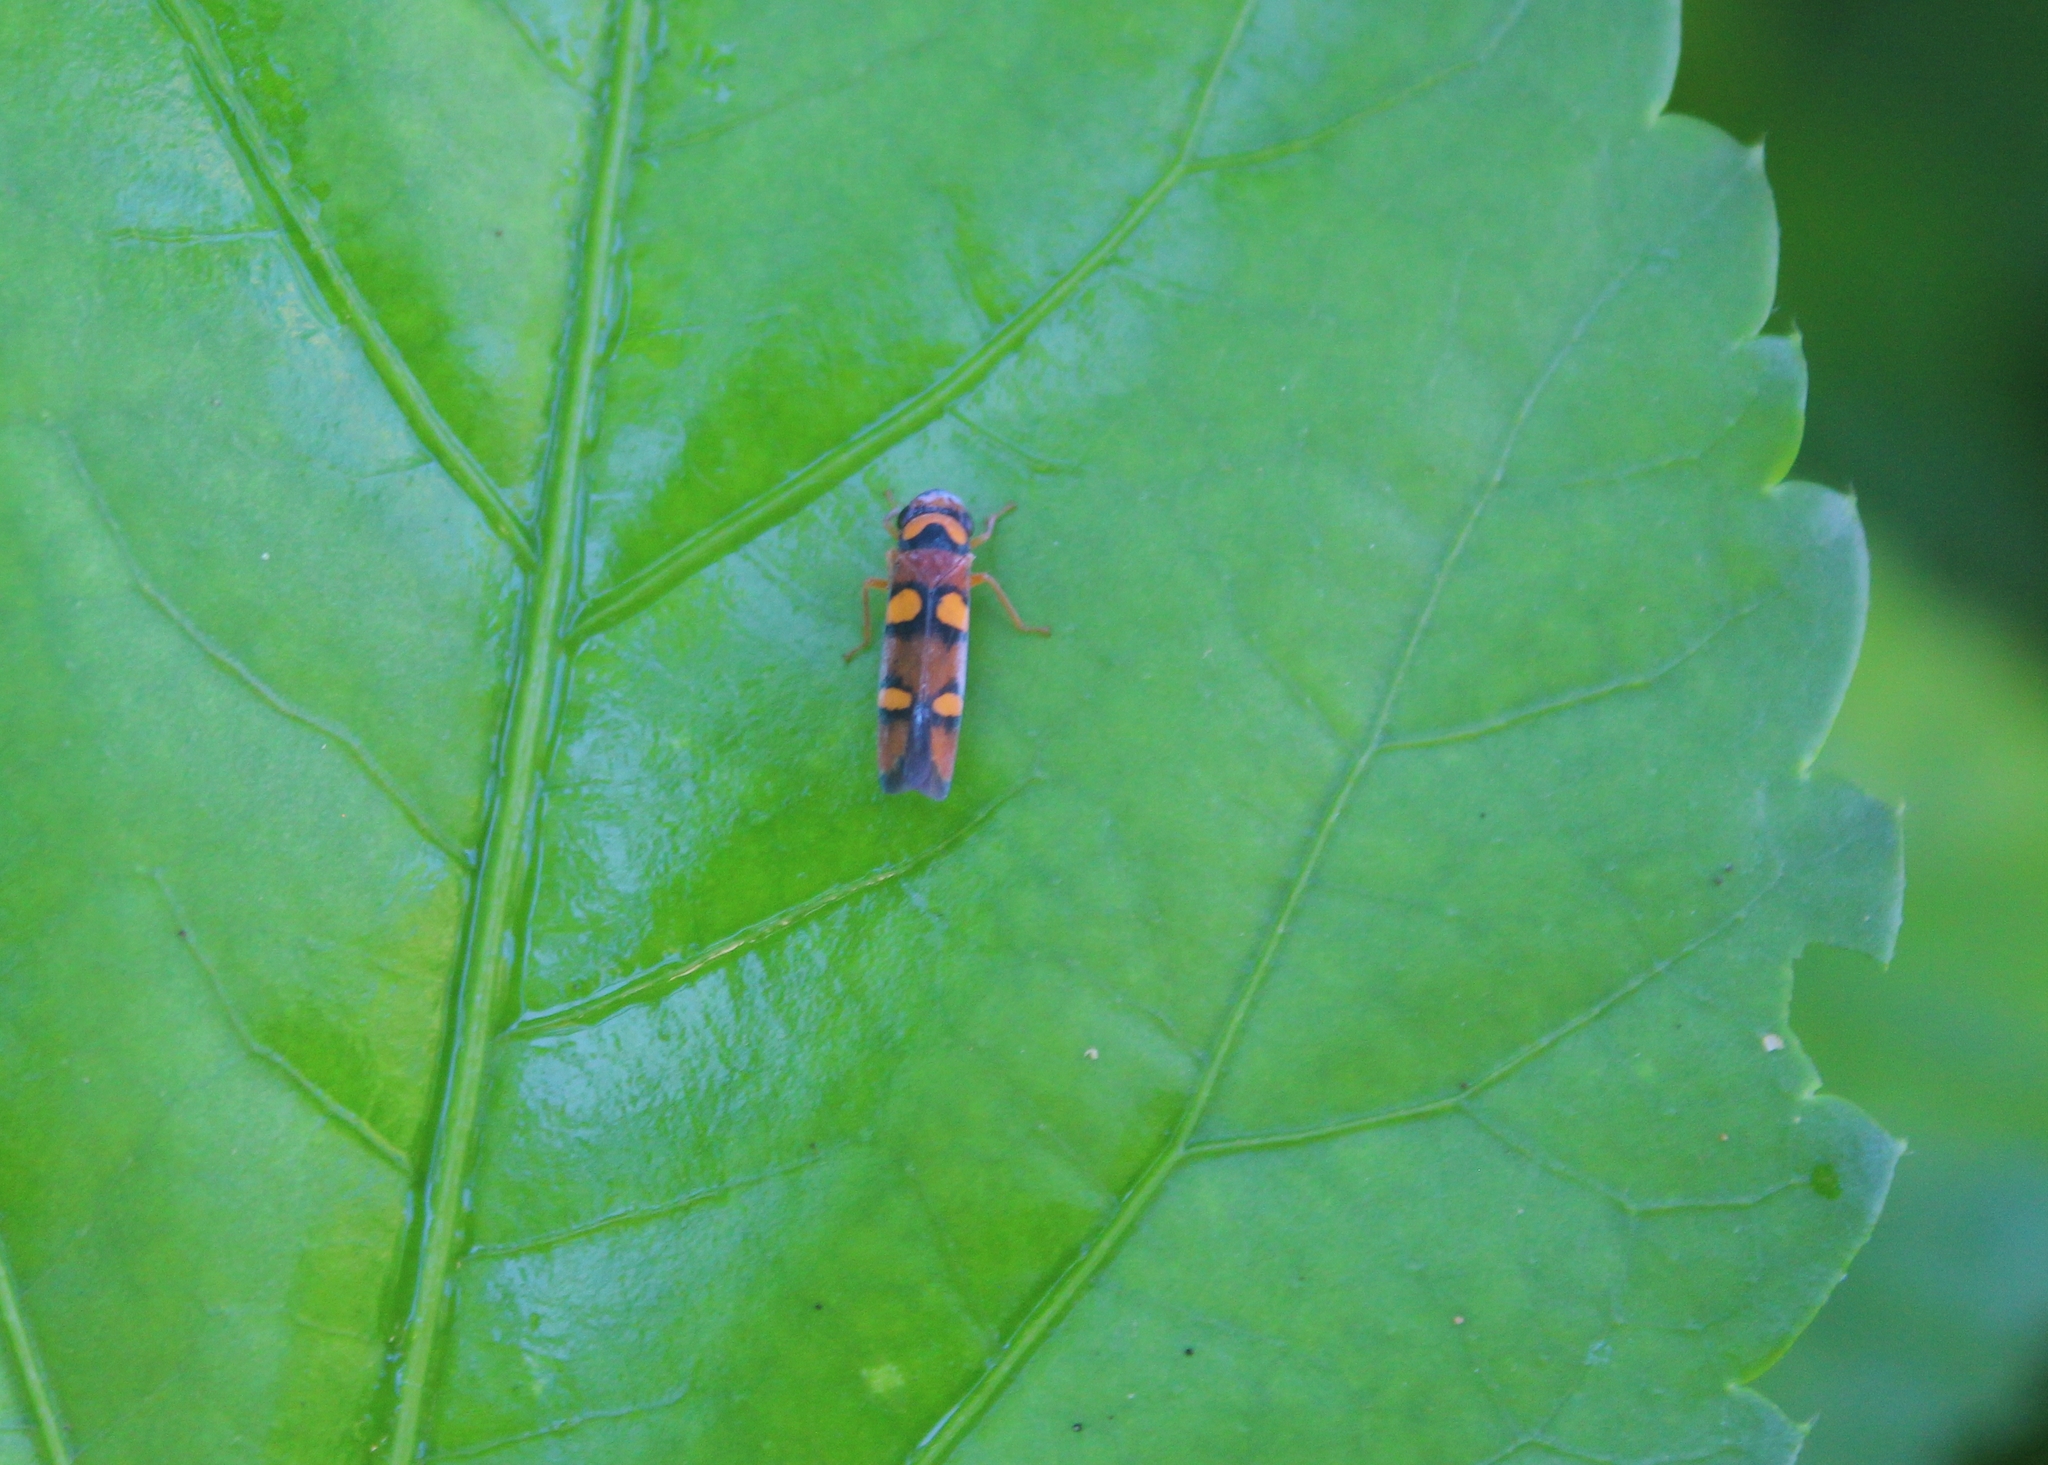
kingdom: Animalia
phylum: Arthropoda
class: Insecta
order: Hemiptera
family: Cicadellidae
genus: Pawiloma
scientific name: Pawiloma jucunda
